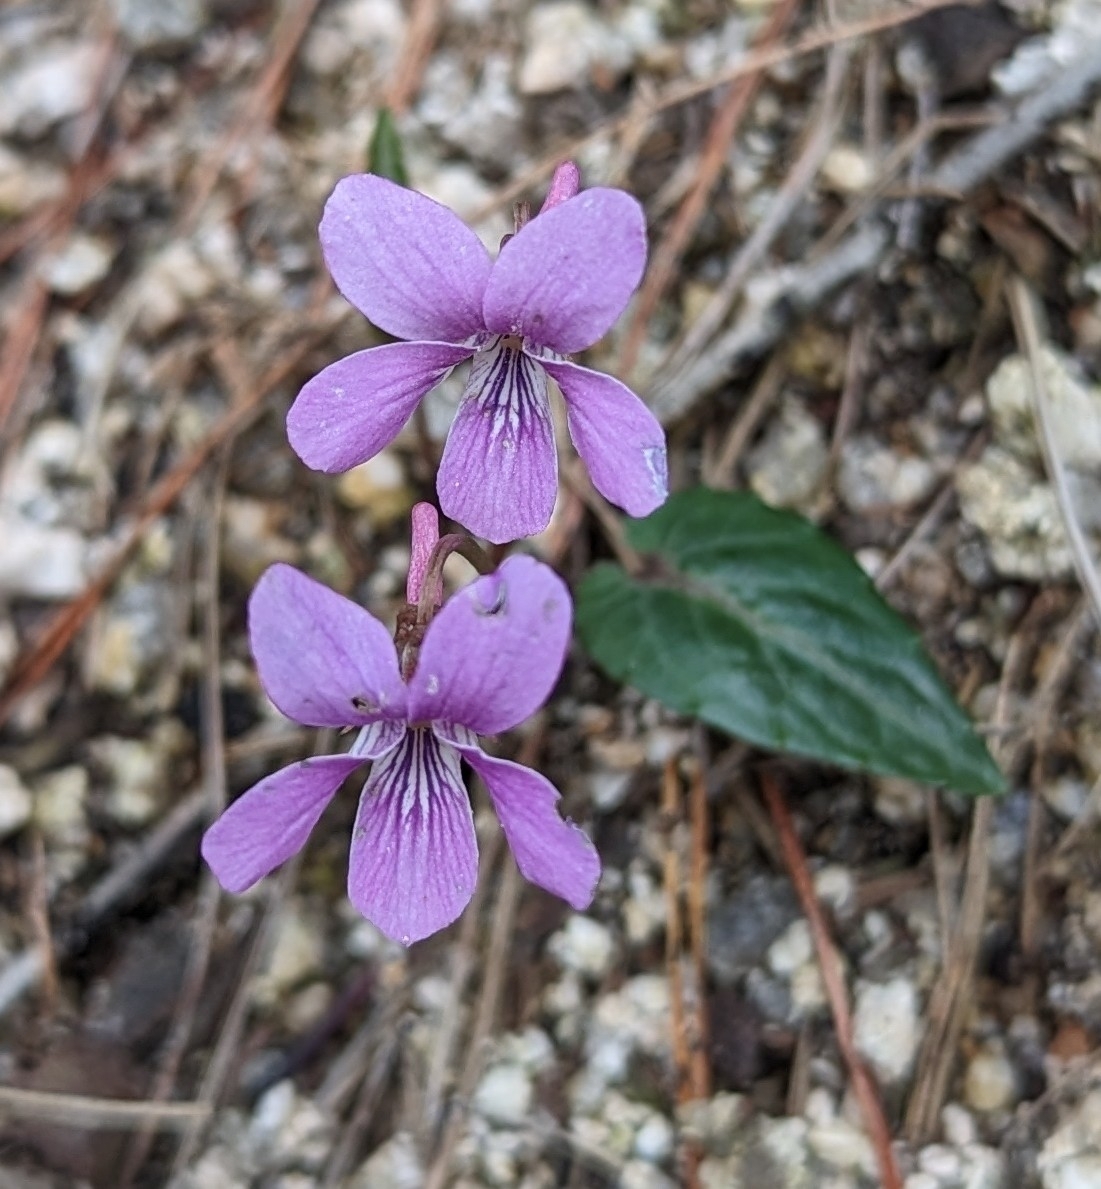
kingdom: Plantae
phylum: Tracheophyta
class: Magnoliopsida
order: Malpighiales
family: Violaceae
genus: Viola
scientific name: Viola violacea
